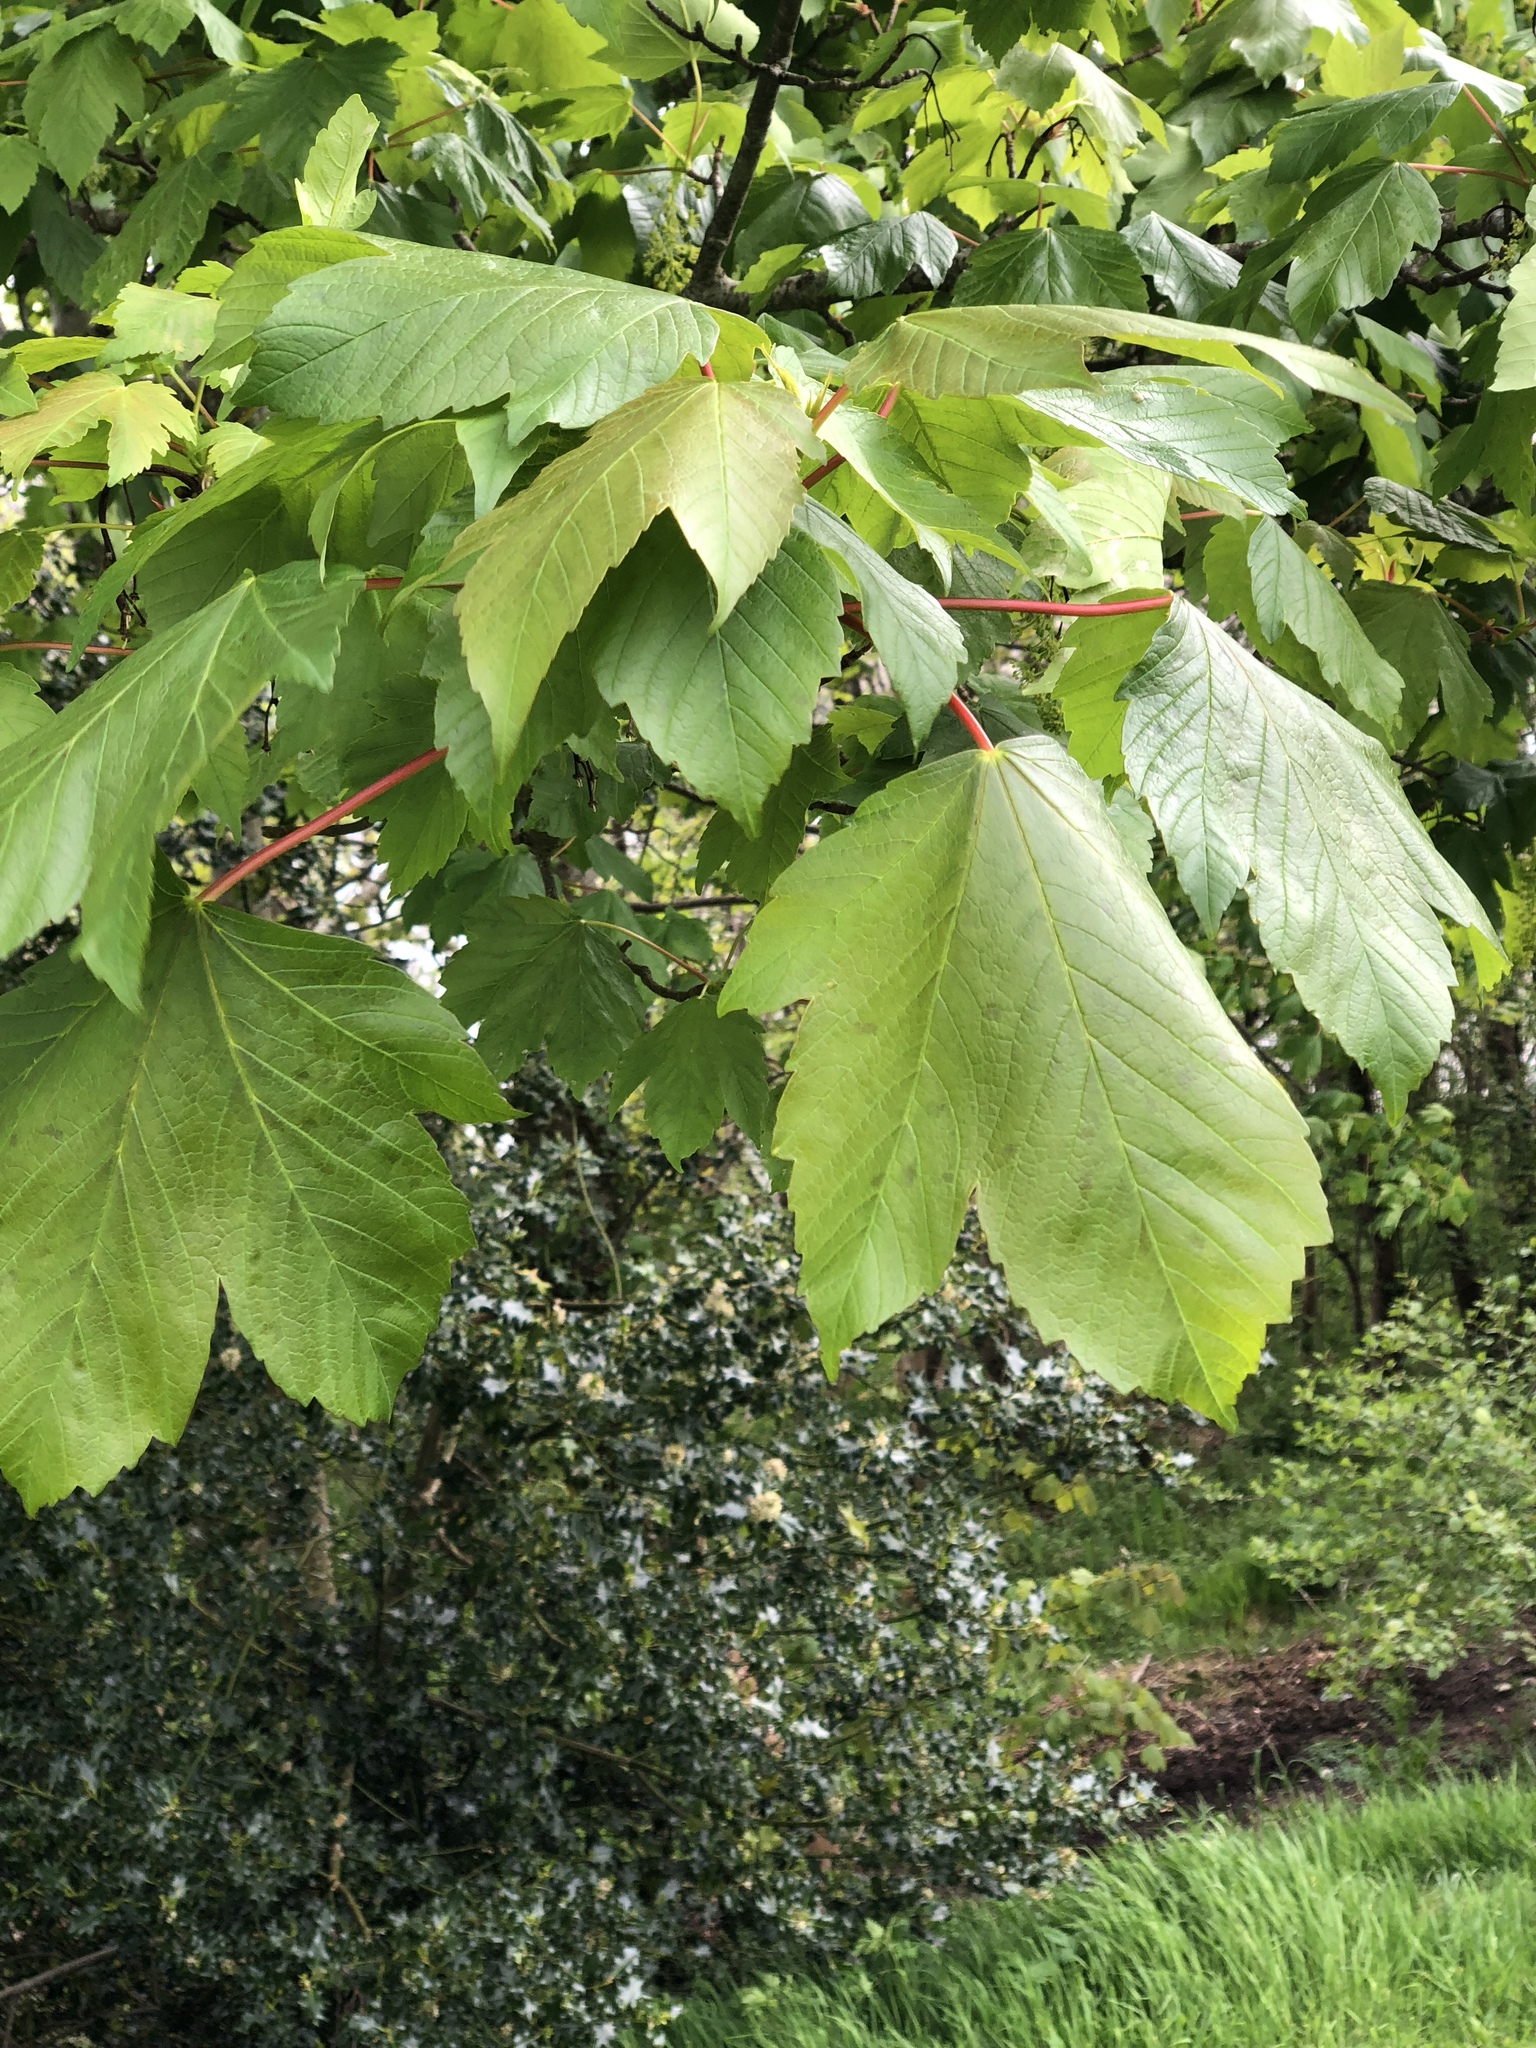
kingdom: Plantae
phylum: Tracheophyta
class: Magnoliopsida
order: Sapindales
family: Sapindaceae
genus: Acer
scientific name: Acer pseudoplatanus
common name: Sycamore
